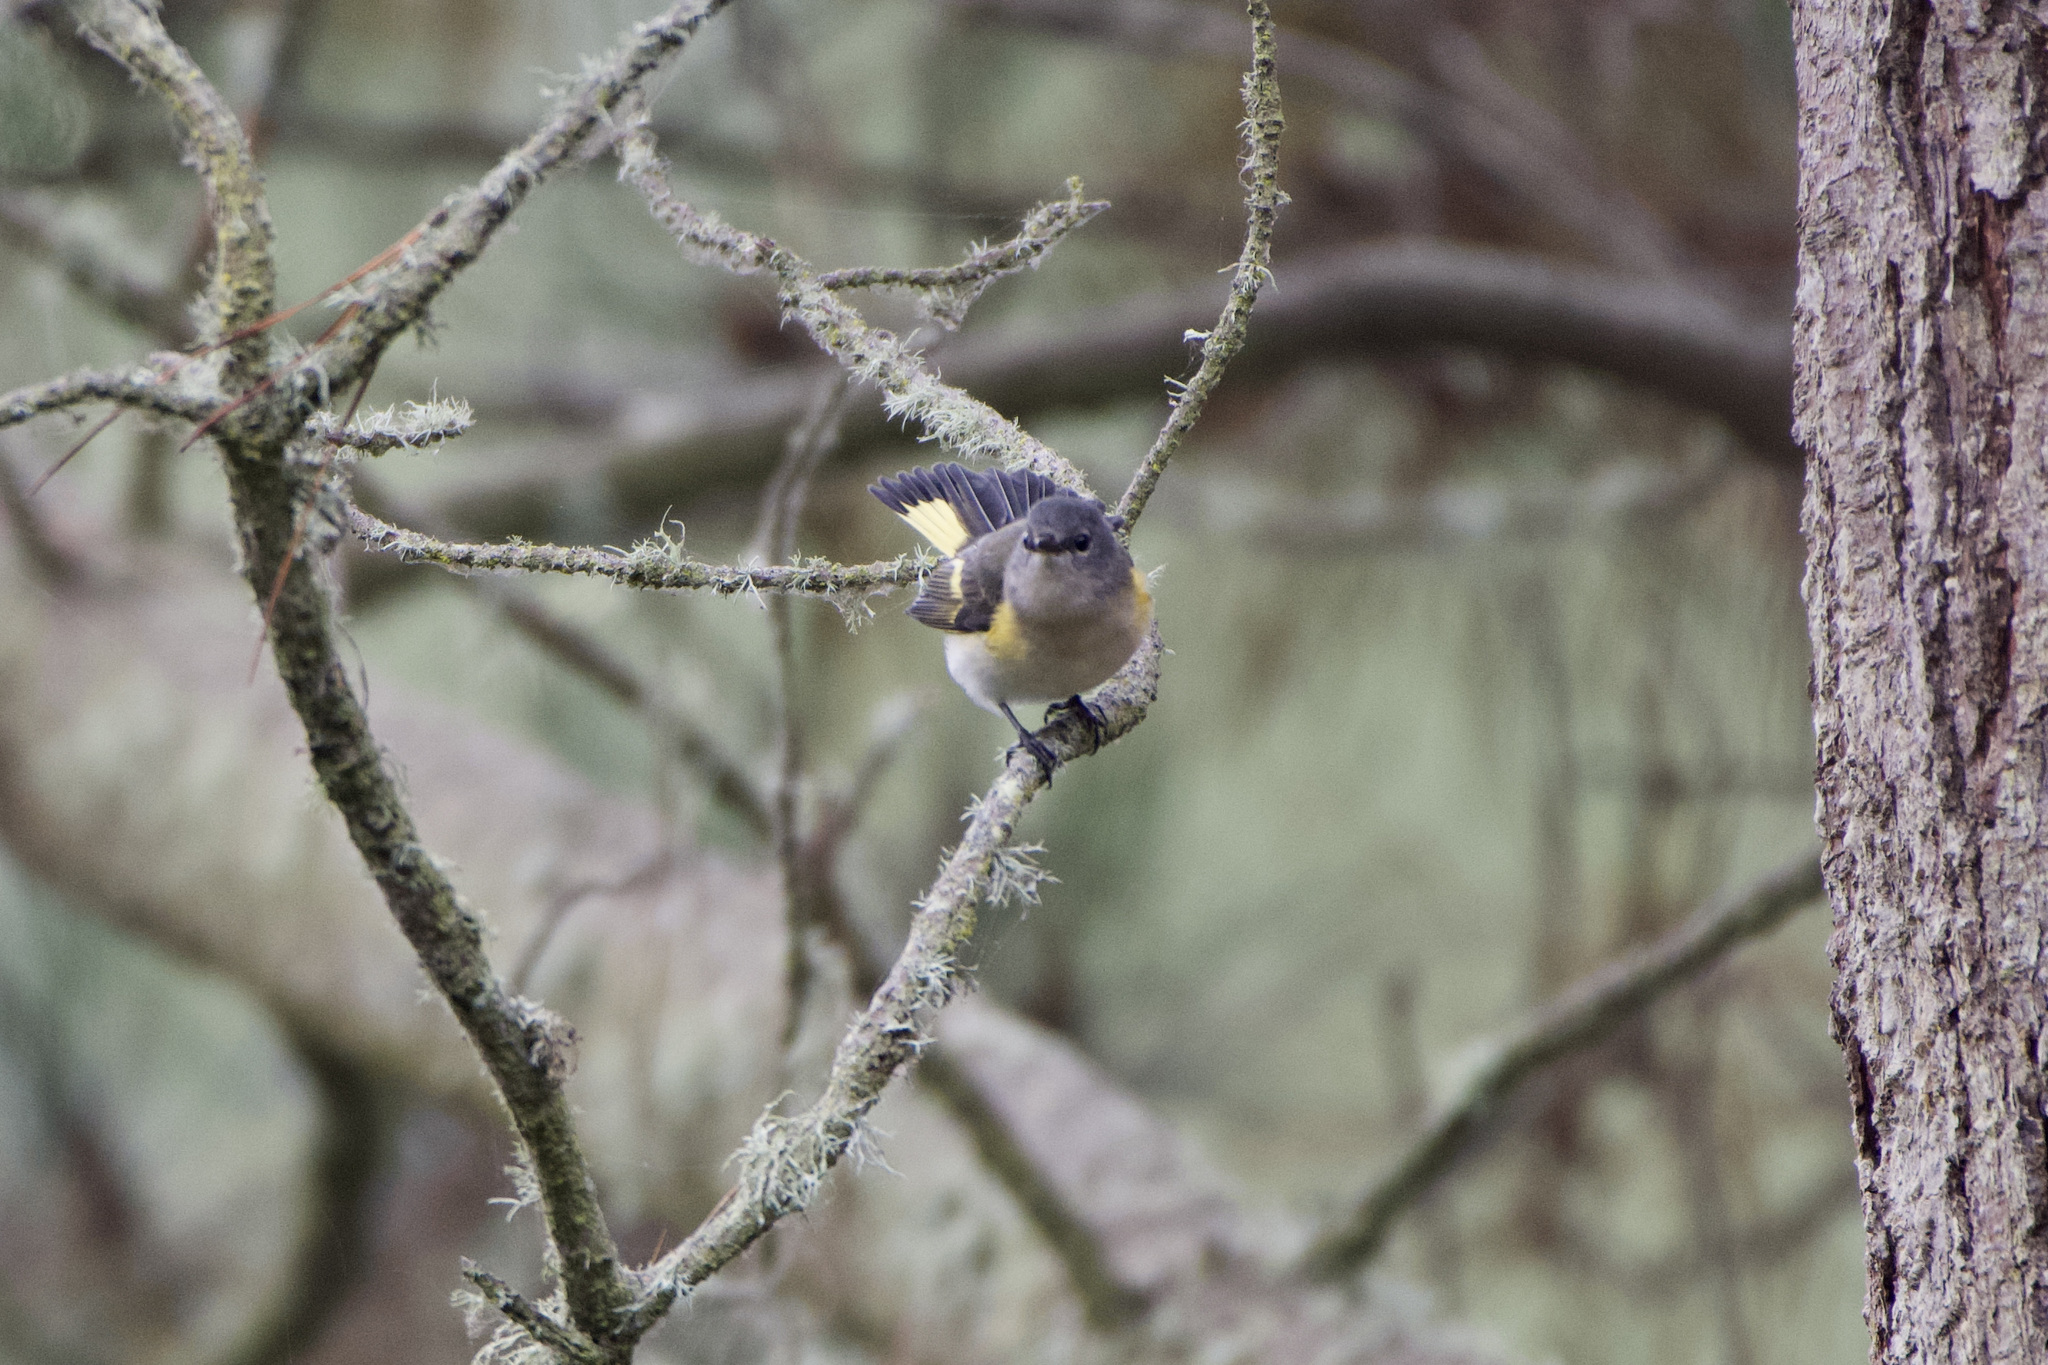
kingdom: Animalia
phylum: Chordata
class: Aves
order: Passeriformes
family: Parulidae
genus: Setophaga
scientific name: Setophaga ruticilla
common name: American redstart
